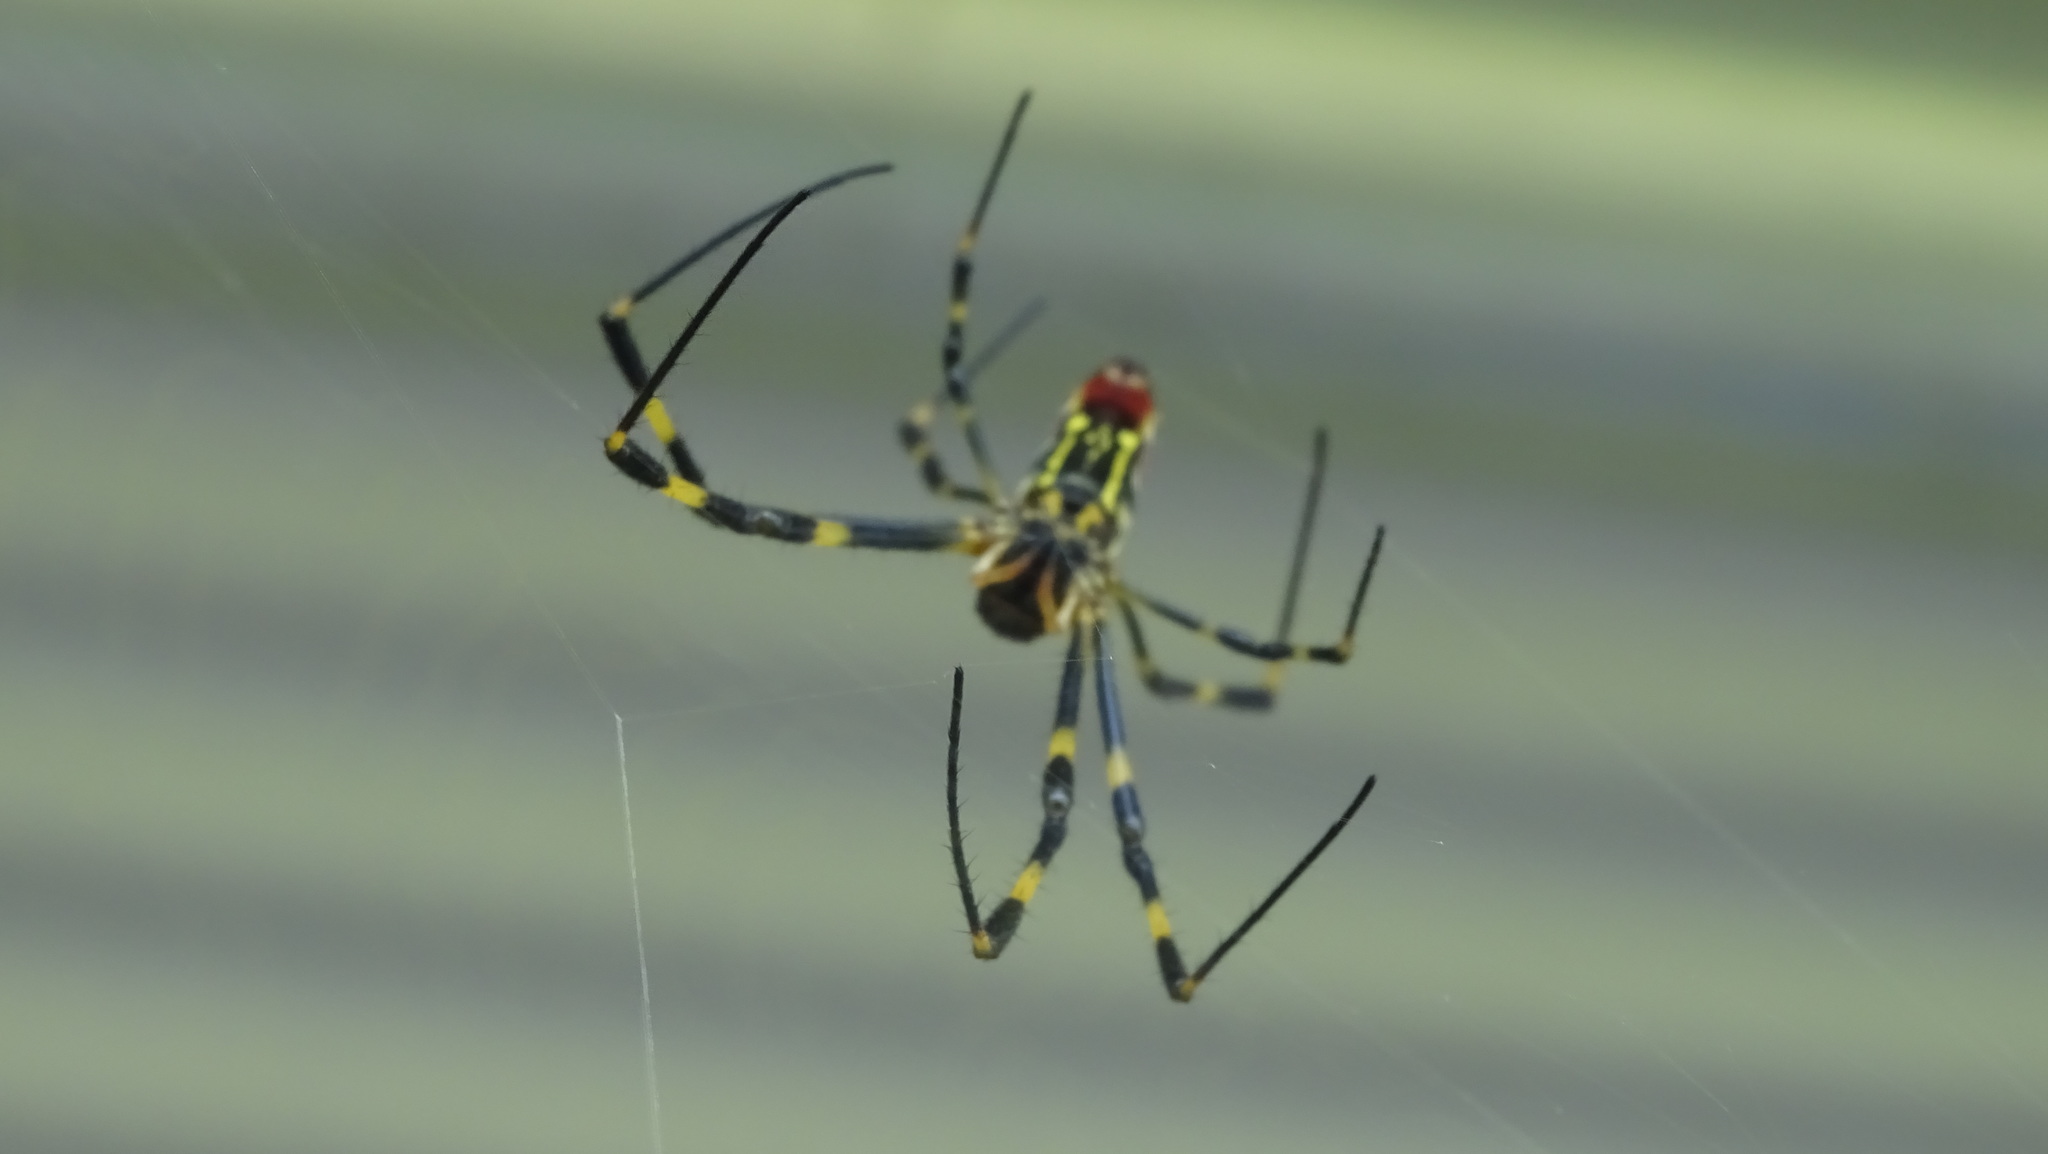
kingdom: Animalia
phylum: Arthropoda
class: Arachnida
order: Araneae
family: Araneidae
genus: Trichonephila
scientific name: Trichonephila clavata
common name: Jorō spider
